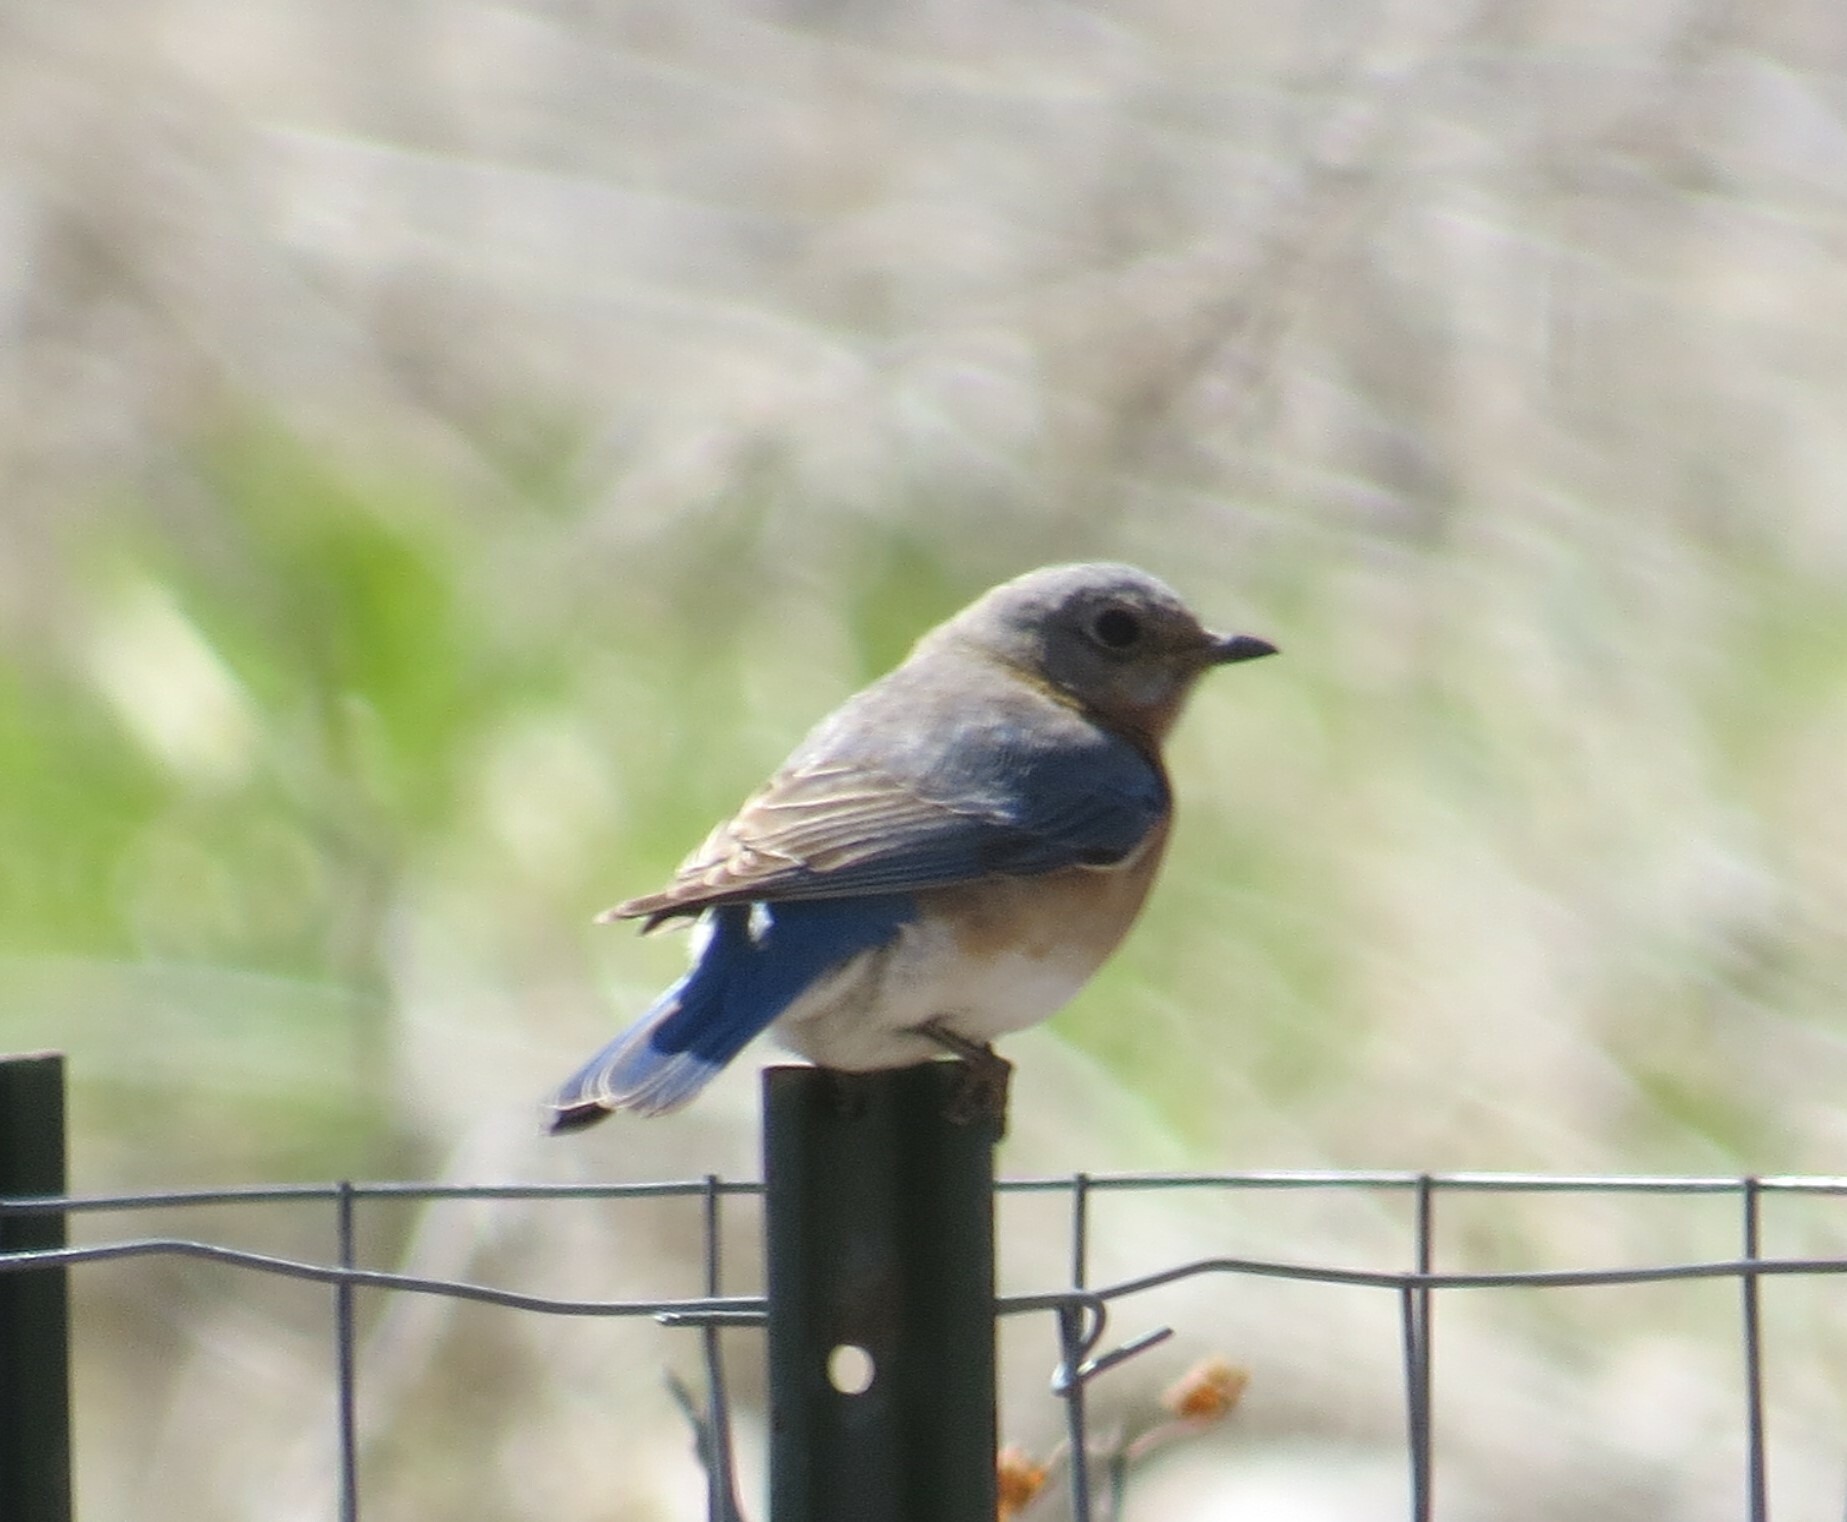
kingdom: Animalia
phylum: Chordata
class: Aves
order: Passeriformes
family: Turdidae
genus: Sialia
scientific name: Sialia sialis
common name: Eastern bluebird
